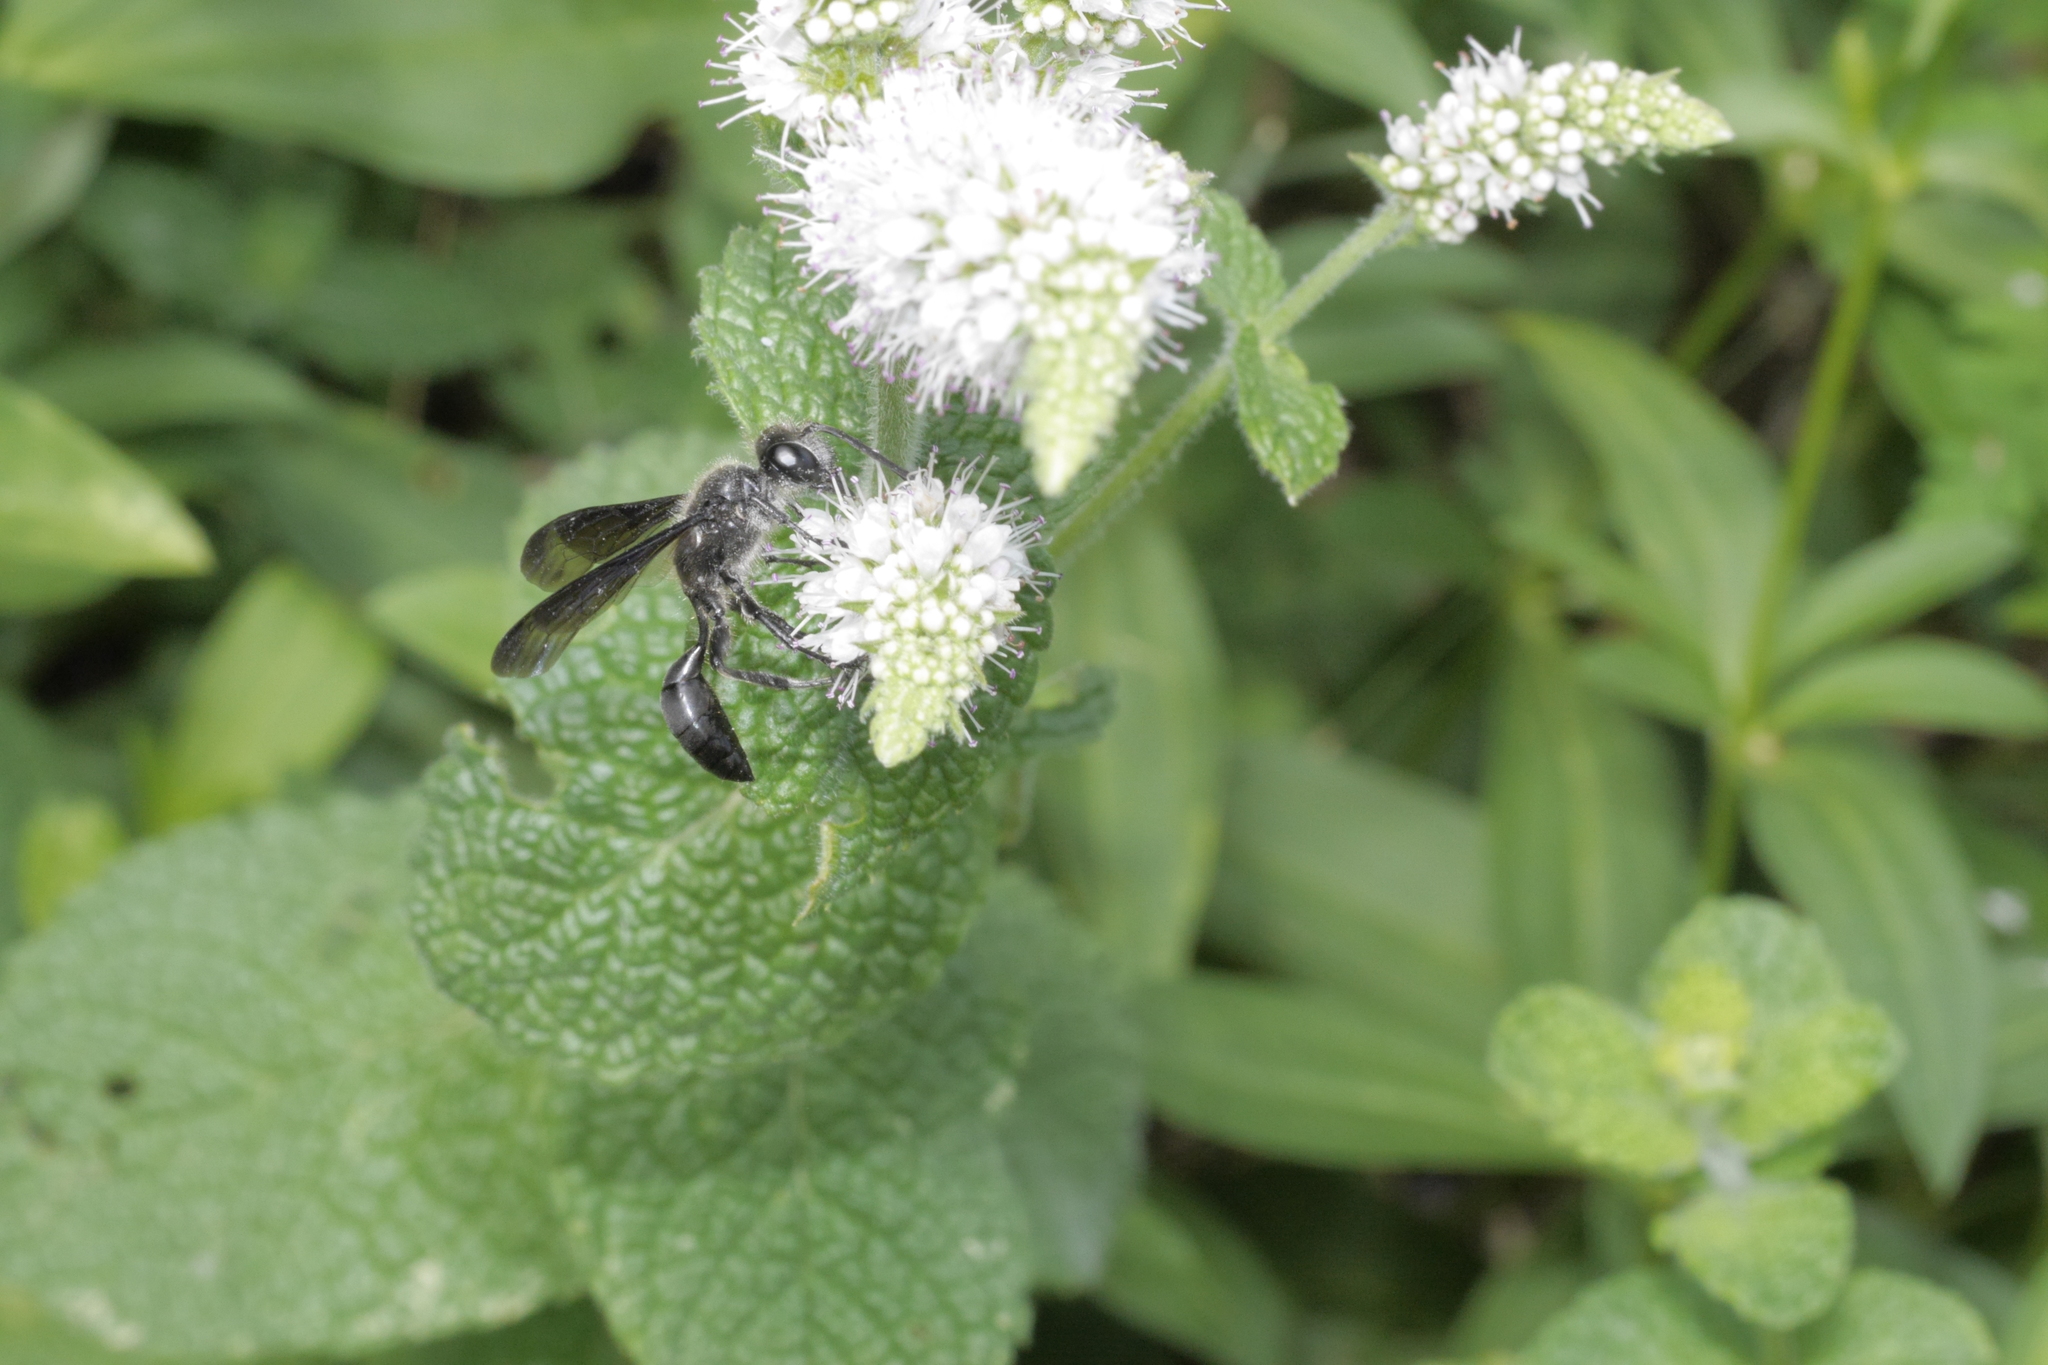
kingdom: Animalia
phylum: Arthropoda
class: Insecta
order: Hymenoptera
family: Sphecidae
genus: Isodontia
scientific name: Isodontia mexicana
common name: Mud dauber
